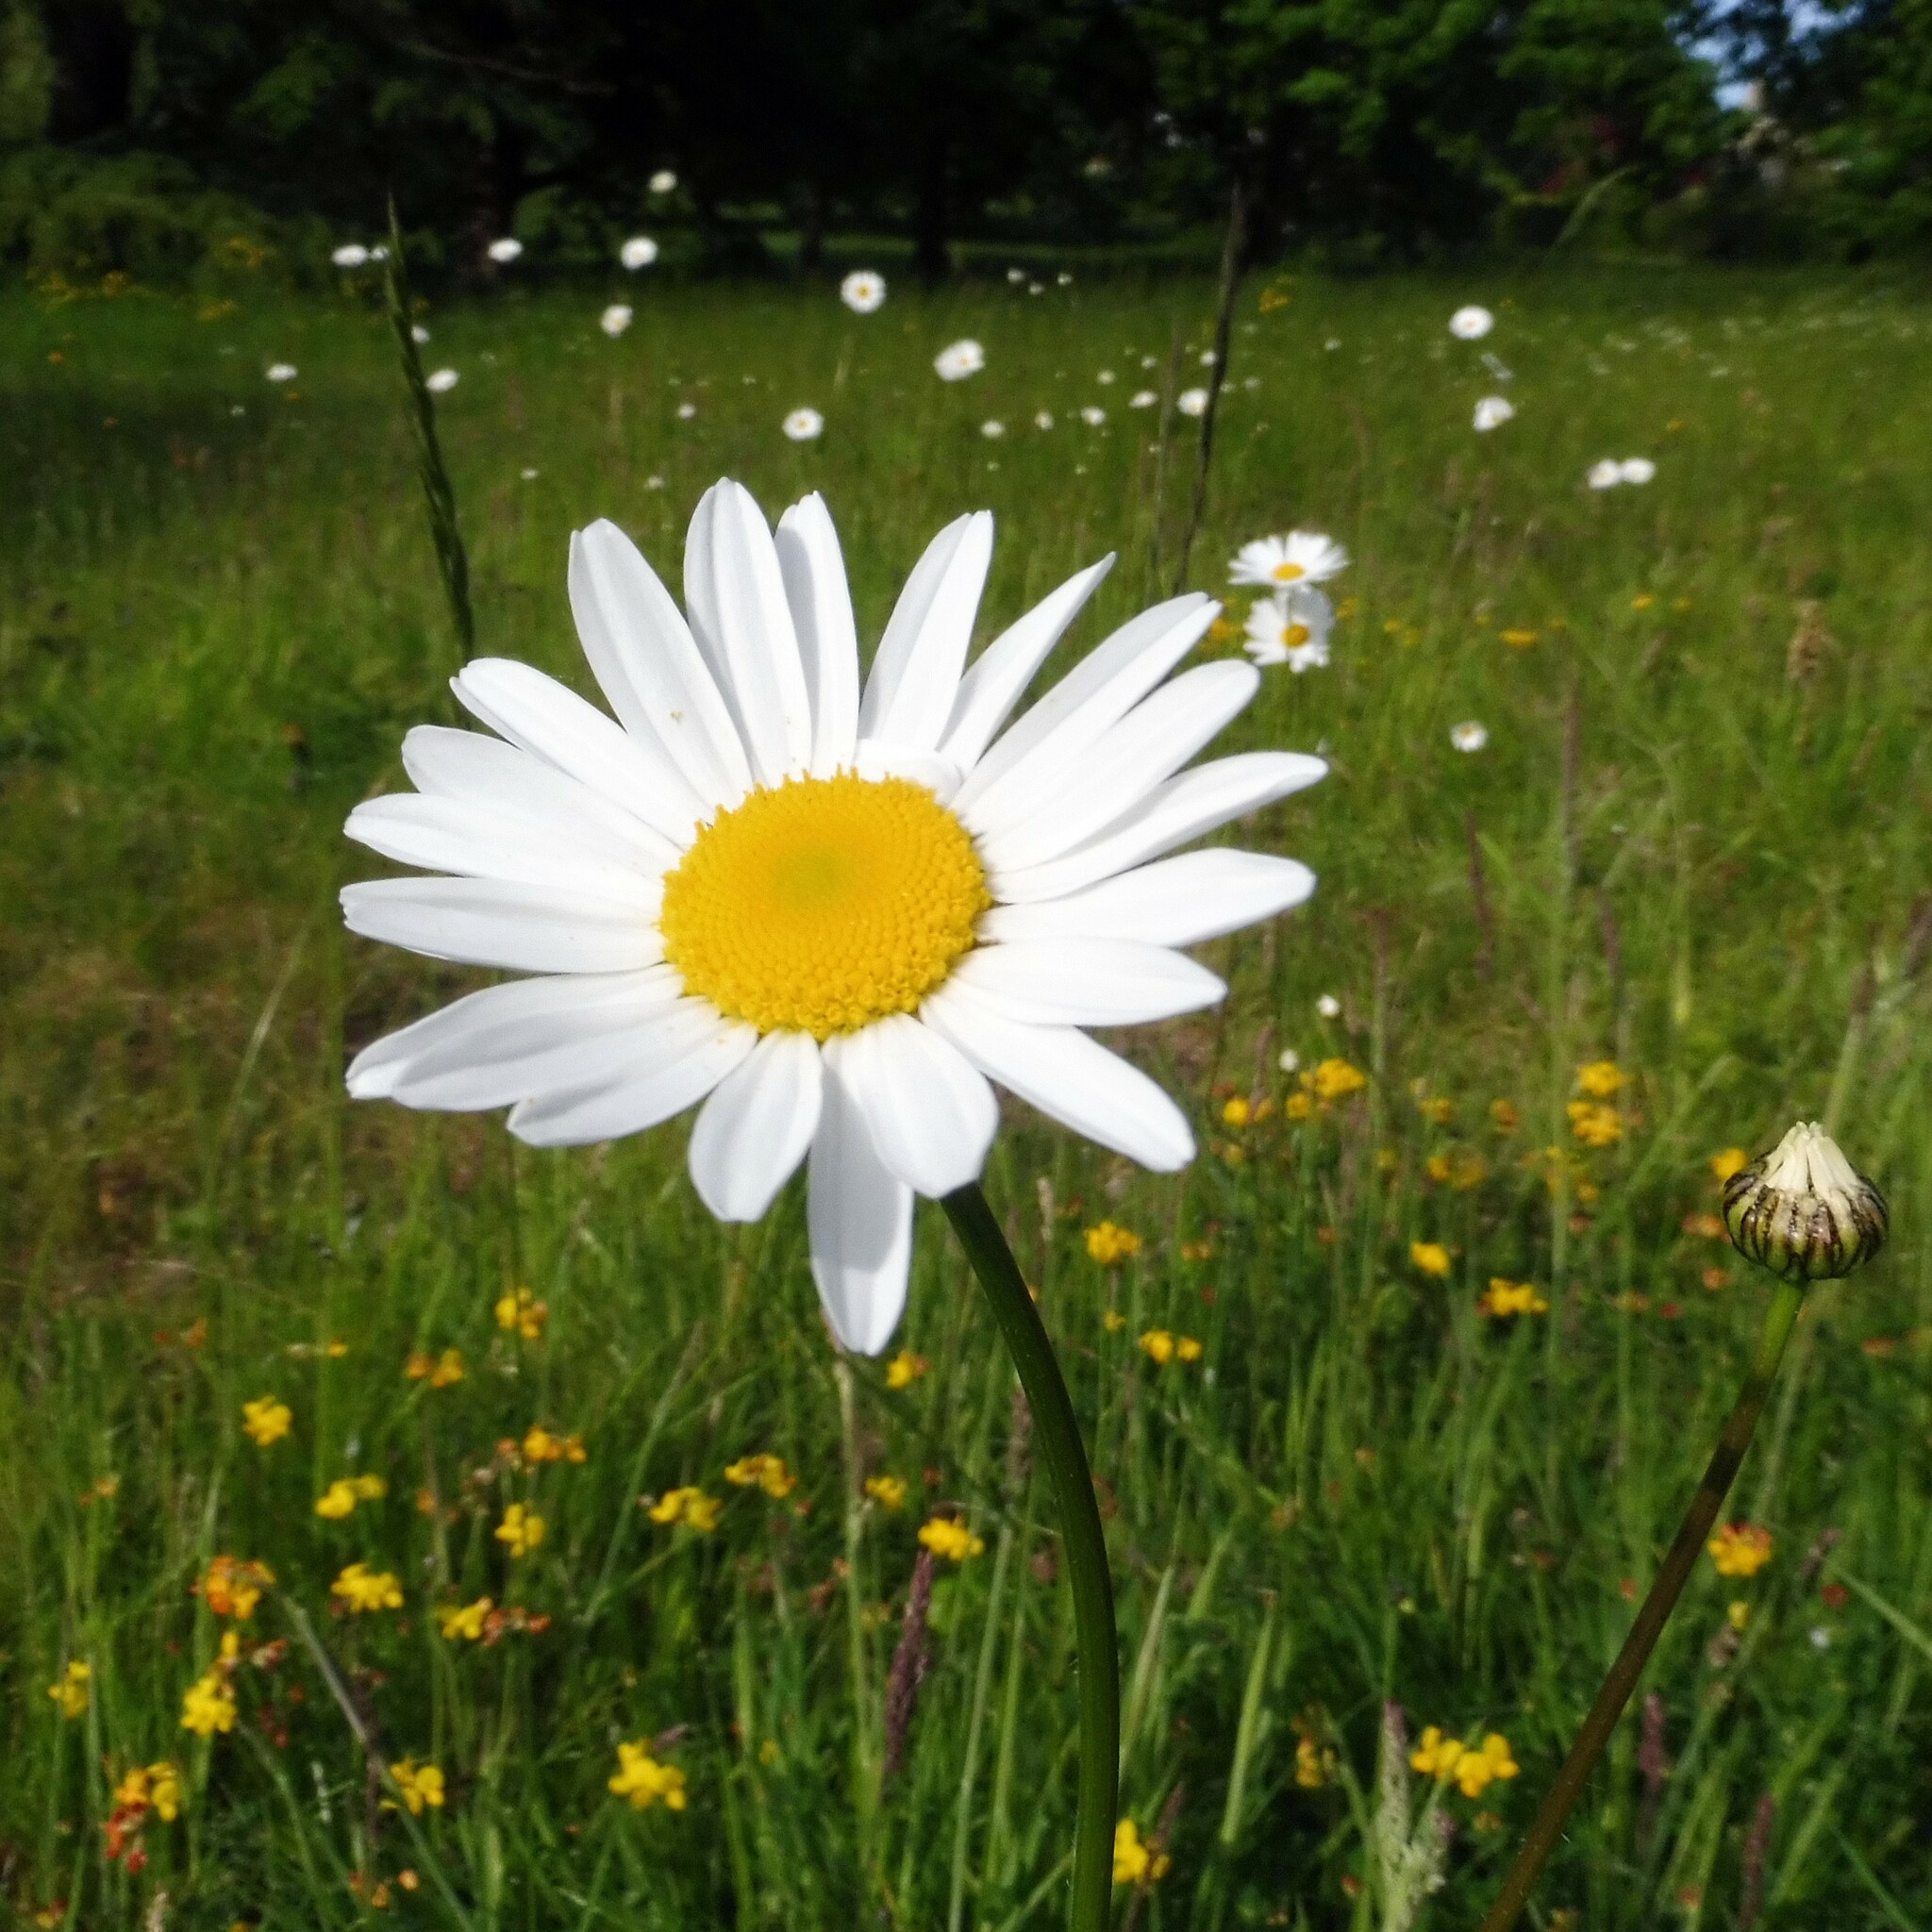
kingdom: Plantae
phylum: Tracheophyta
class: Magnoliopsida
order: Asterales
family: Asteraceae
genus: Leucanthemum
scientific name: Leucanthemum vulgare
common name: Oxeye daisy
